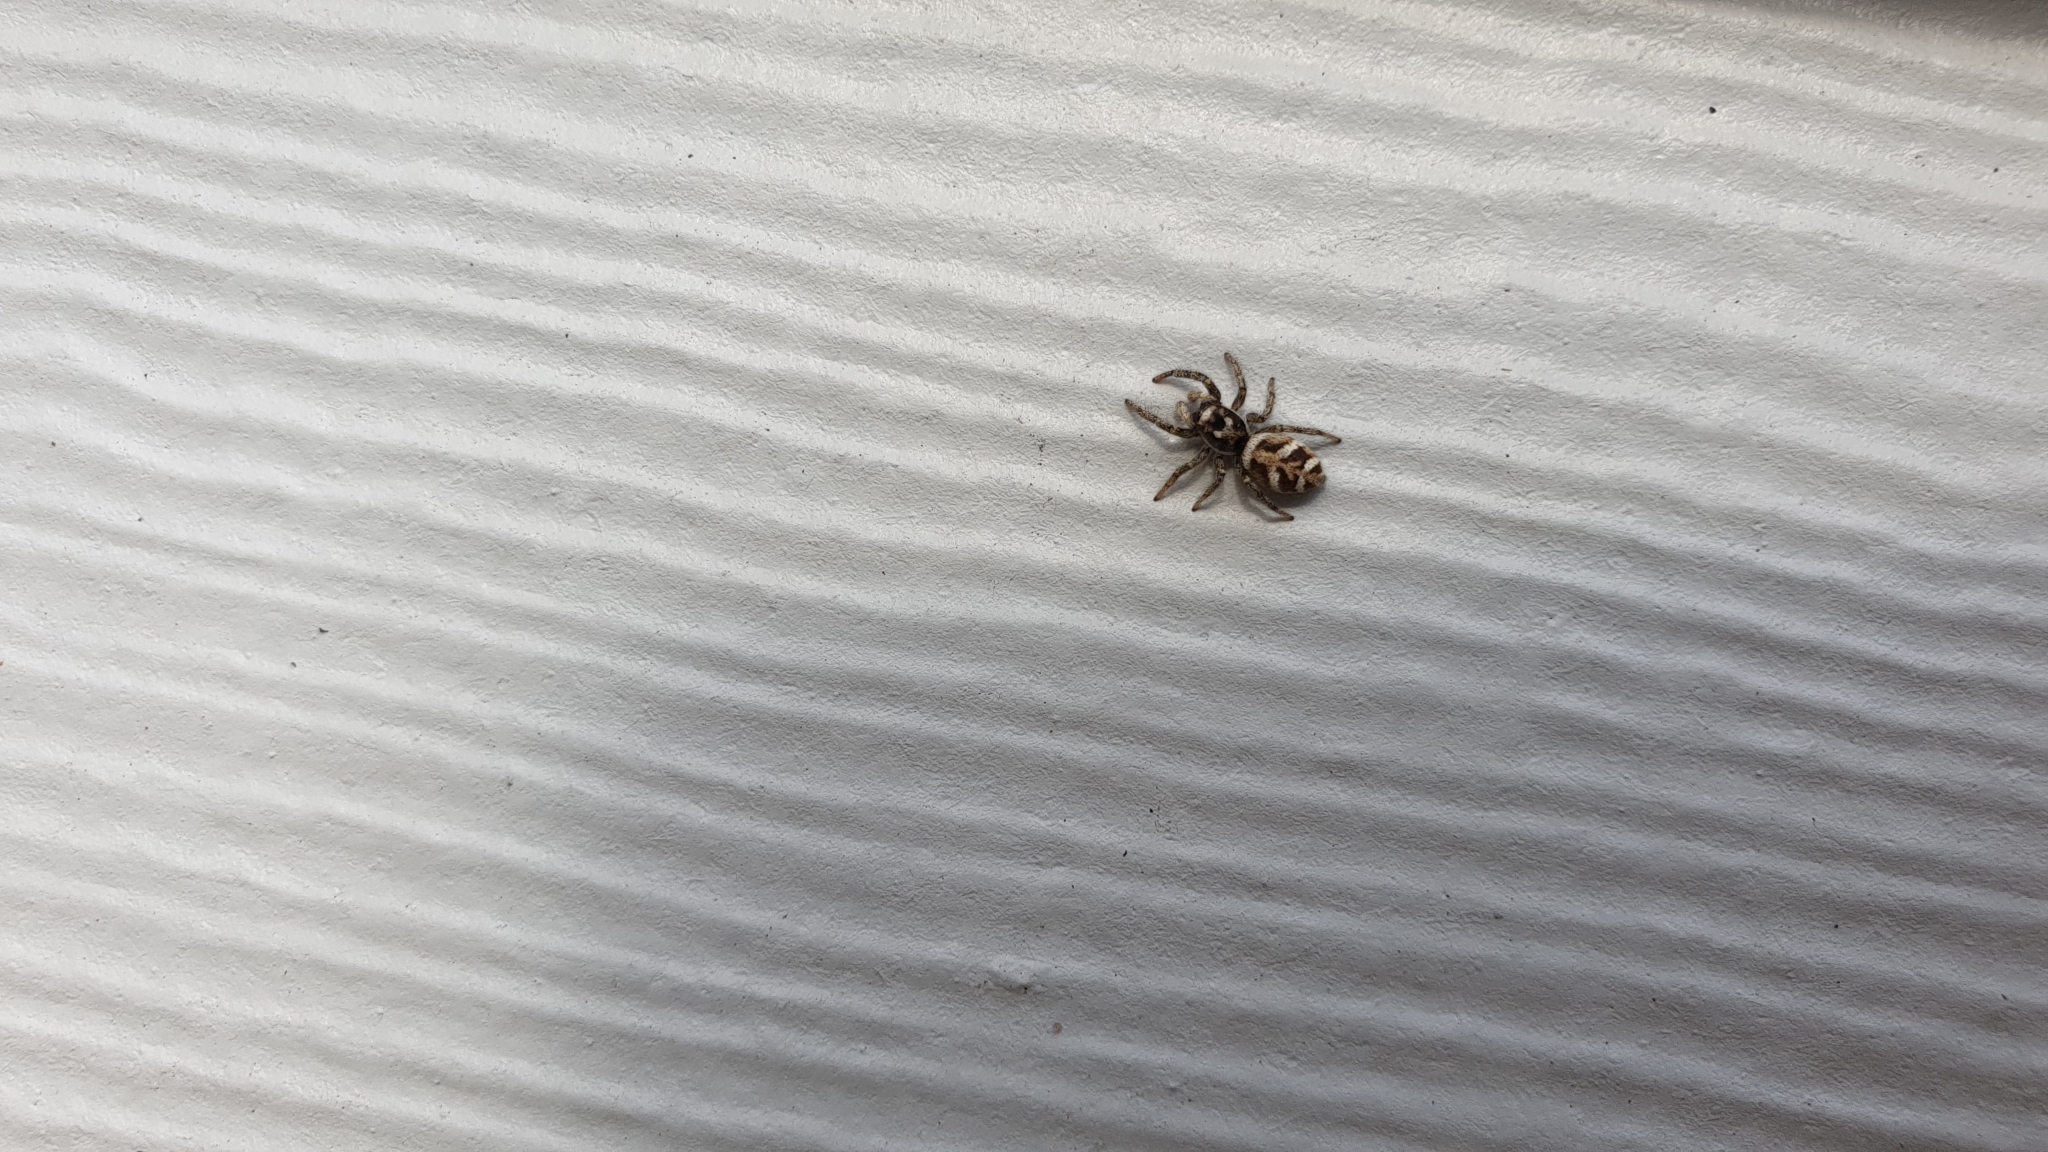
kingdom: Animalia
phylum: Arthropoda
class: Arachnida
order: Araneae
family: Salticidae
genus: Salticus
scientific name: Salticus scenicus
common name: Zebra jumper
